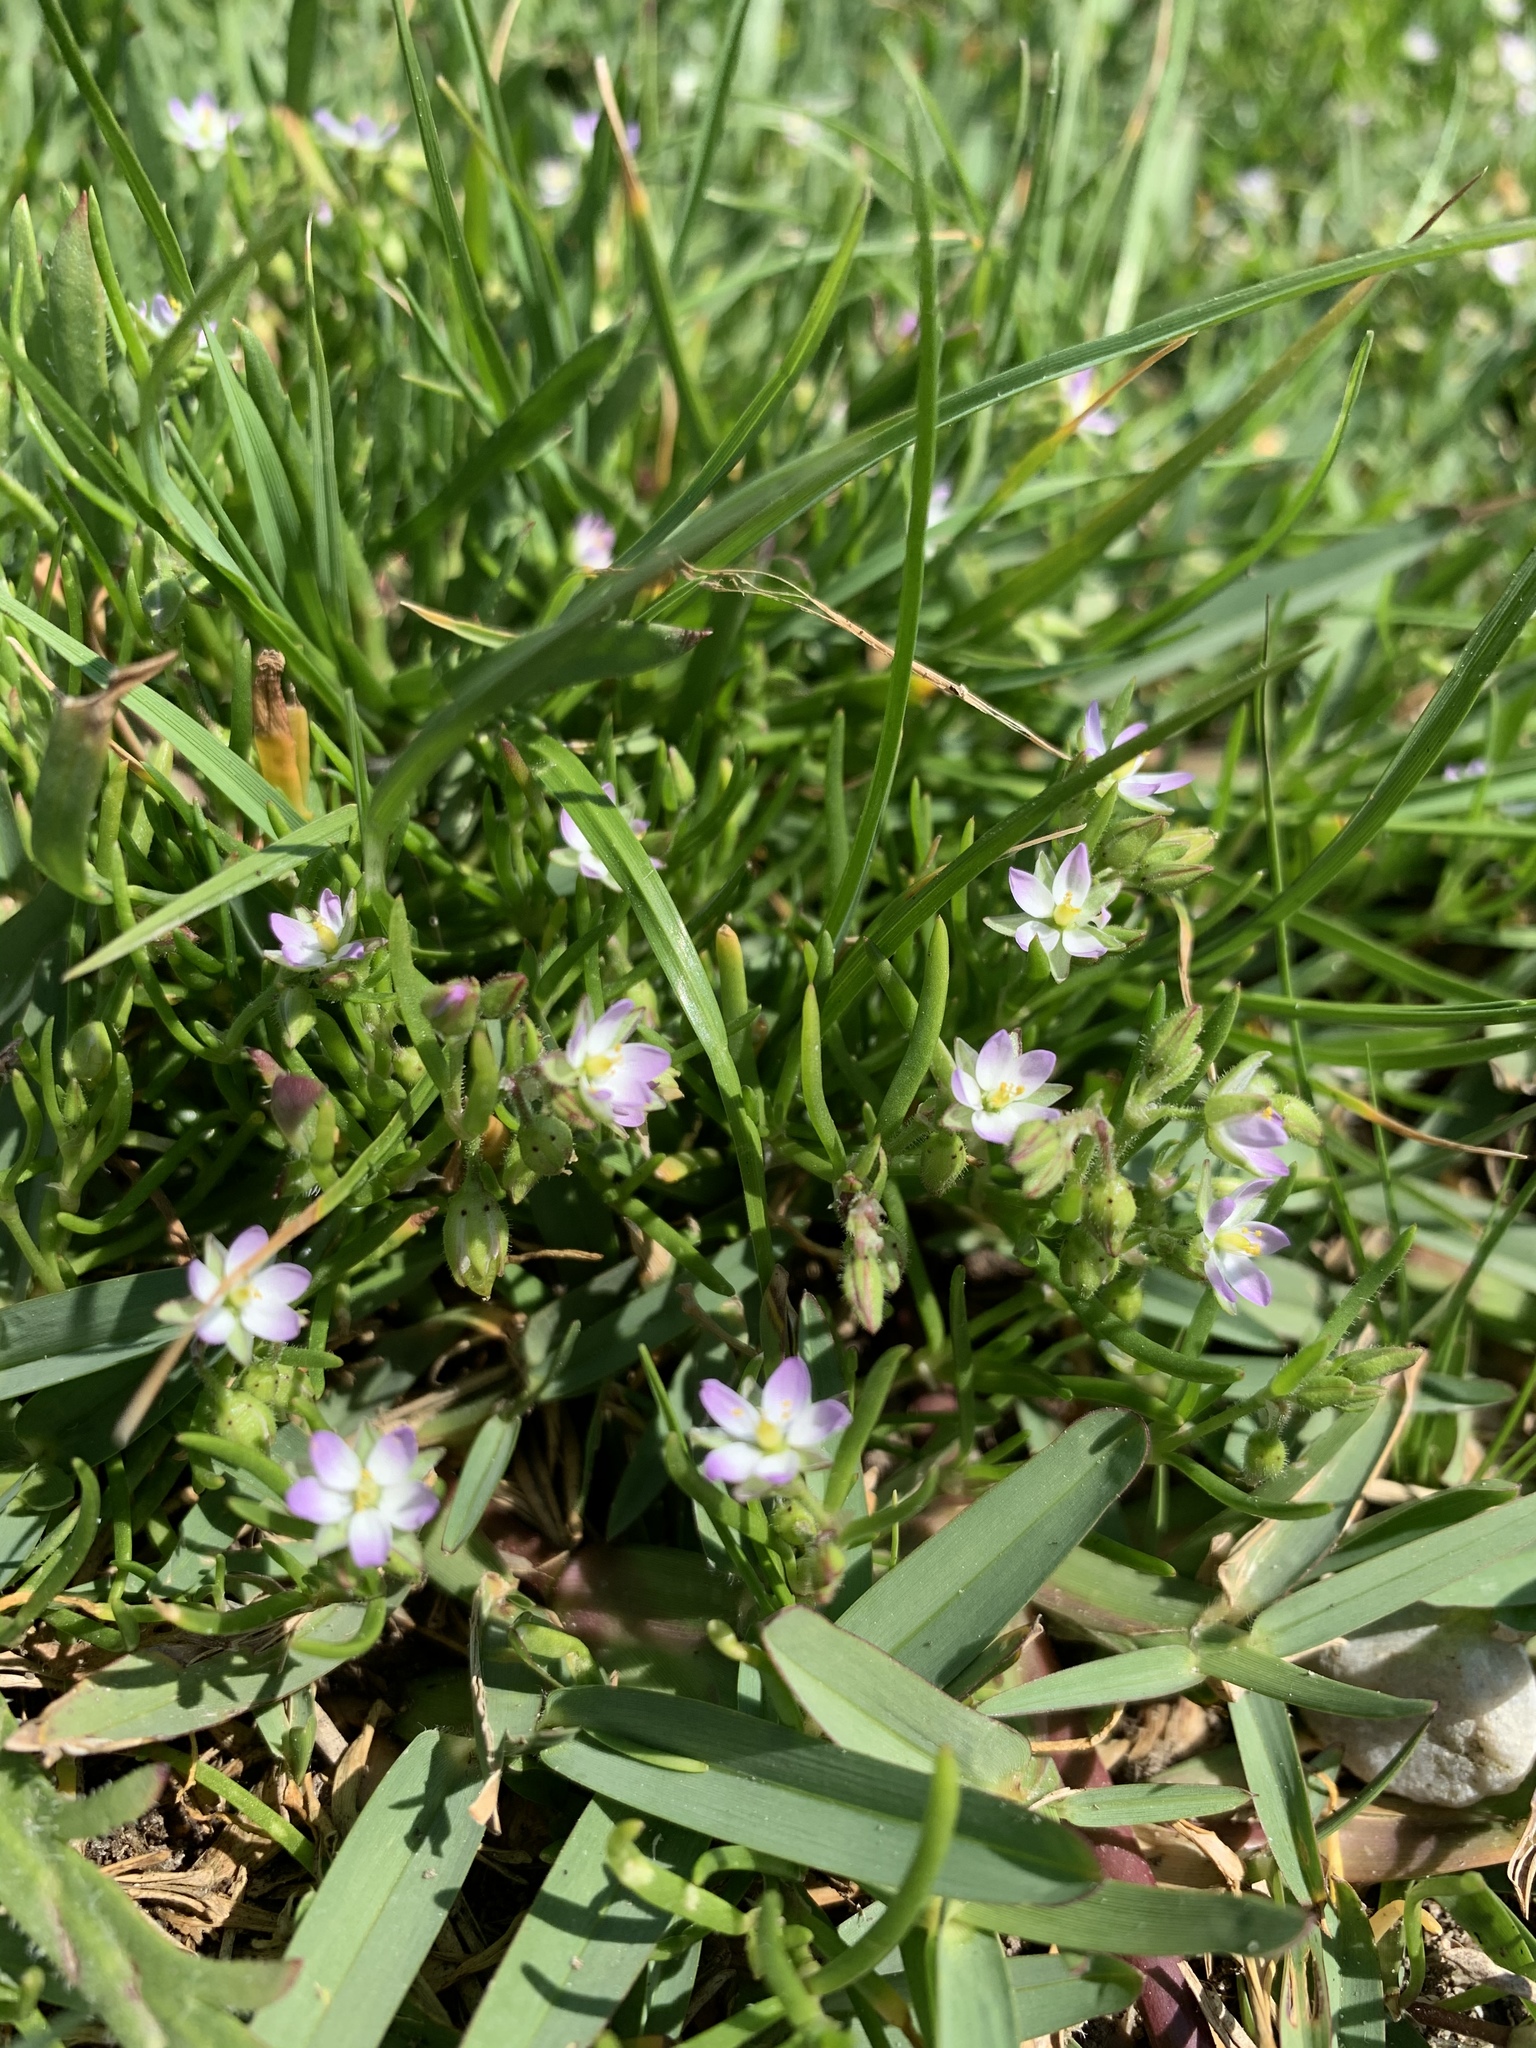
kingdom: Plantae
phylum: Tracheophyta
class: Magnoliopsida
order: Caryophyllales
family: Caryophyllaceae
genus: Spergularia
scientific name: Spergularia media
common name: Greater sea-spurrey
